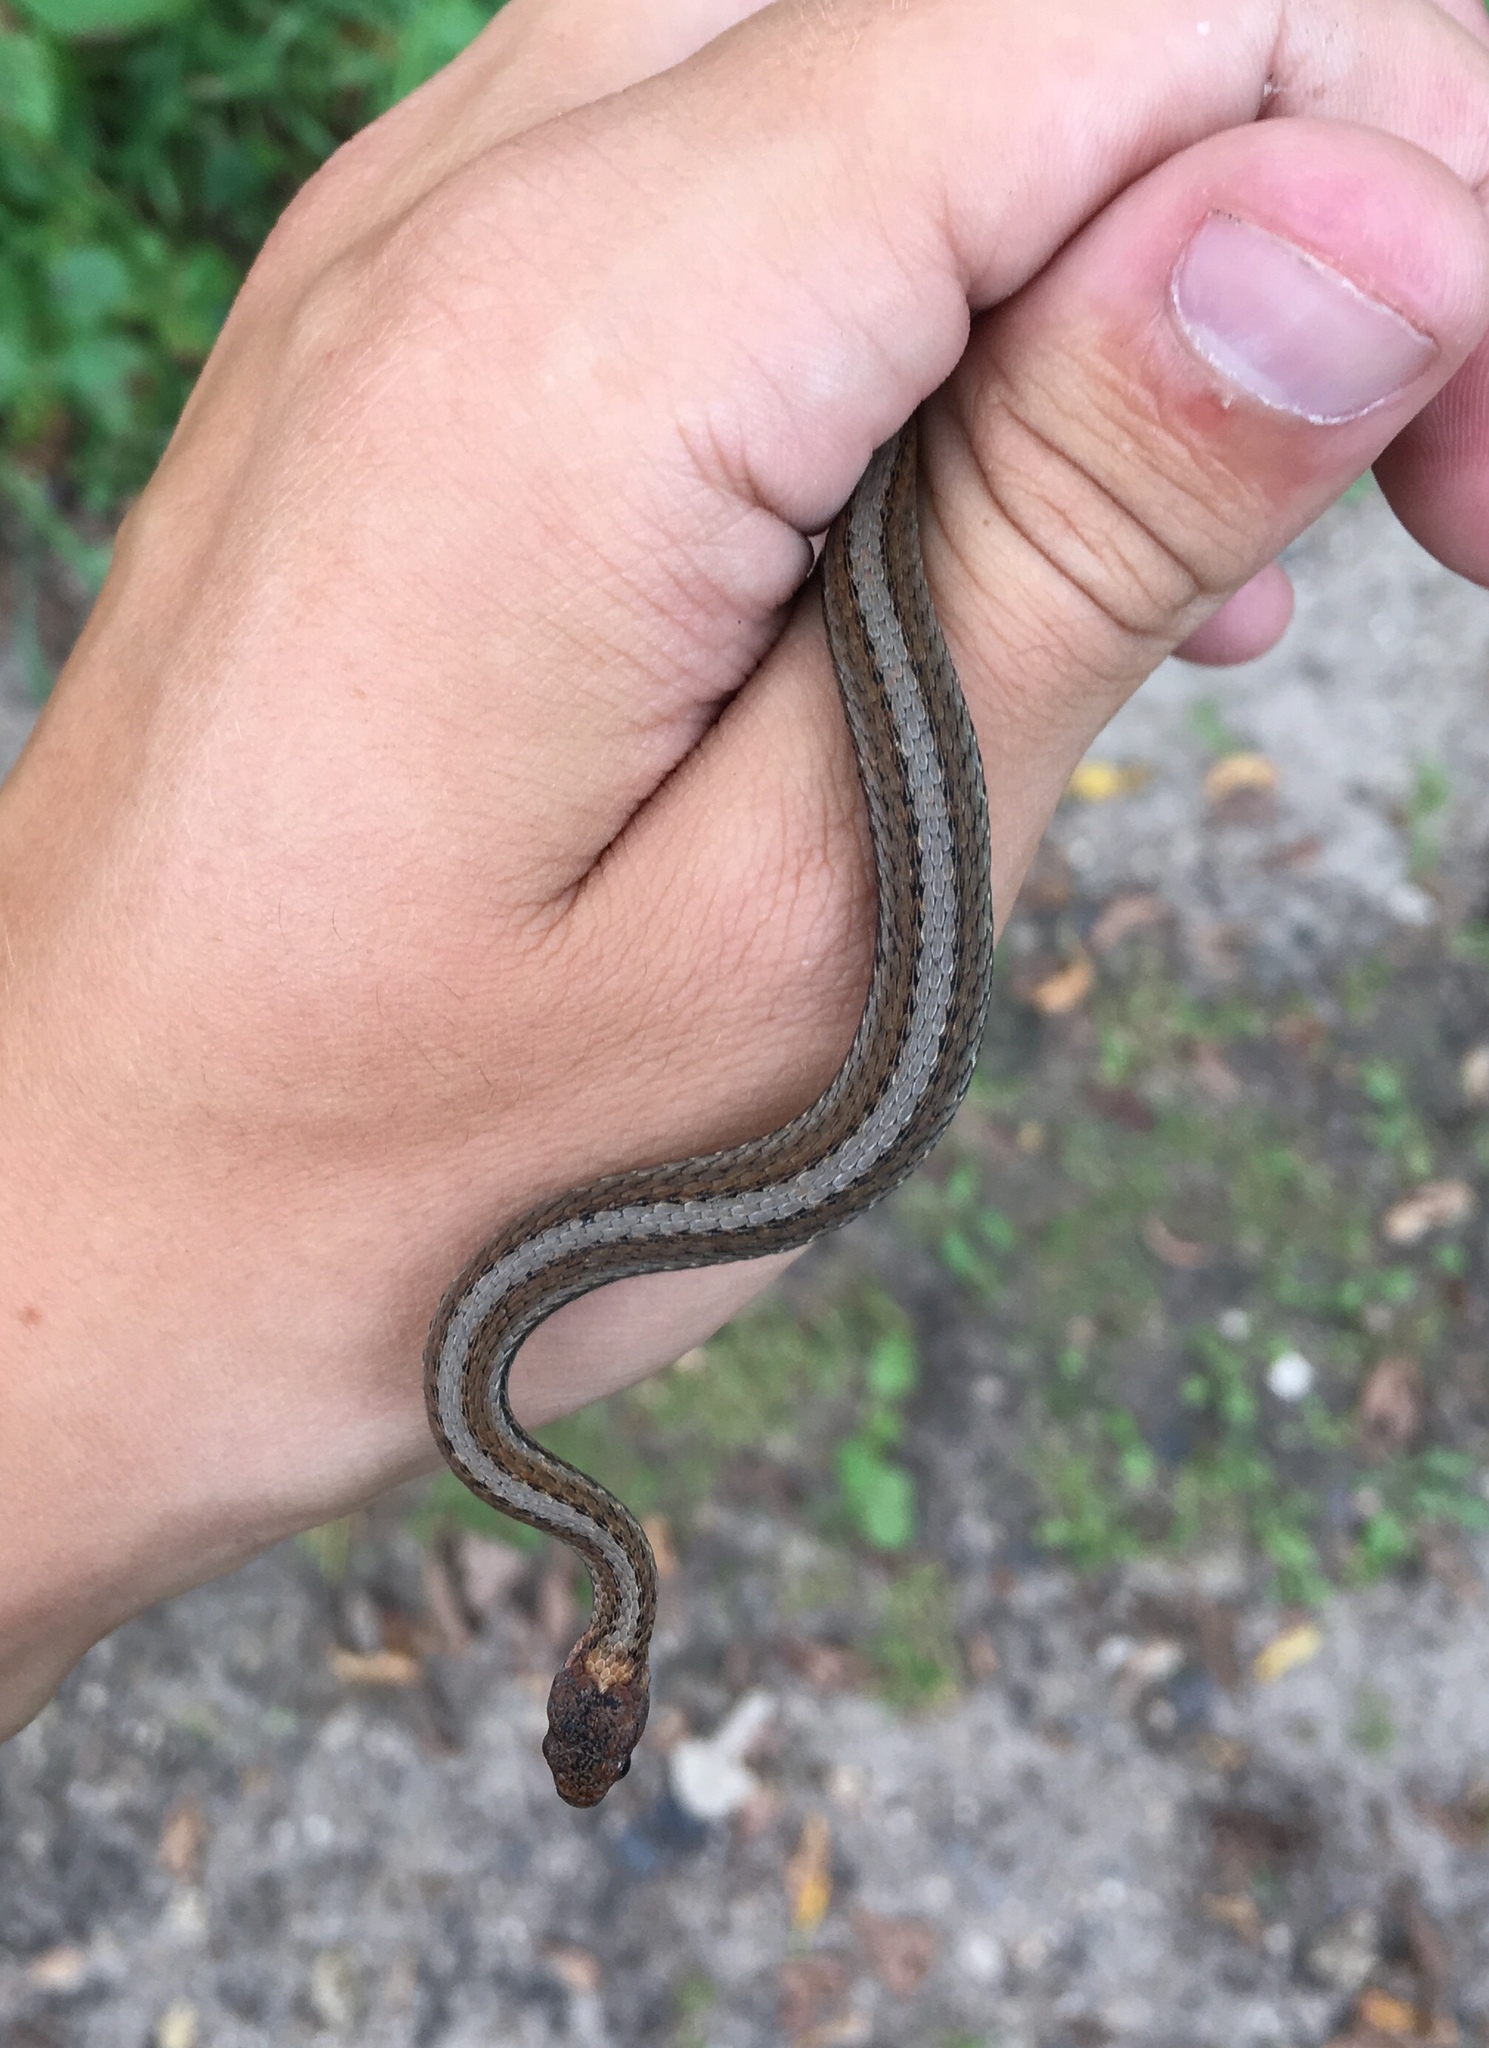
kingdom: Animalia
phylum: Chordata
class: Squamata
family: Colubridae
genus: Storeria
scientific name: Storeria occipitomaculata
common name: Redbelly snake
